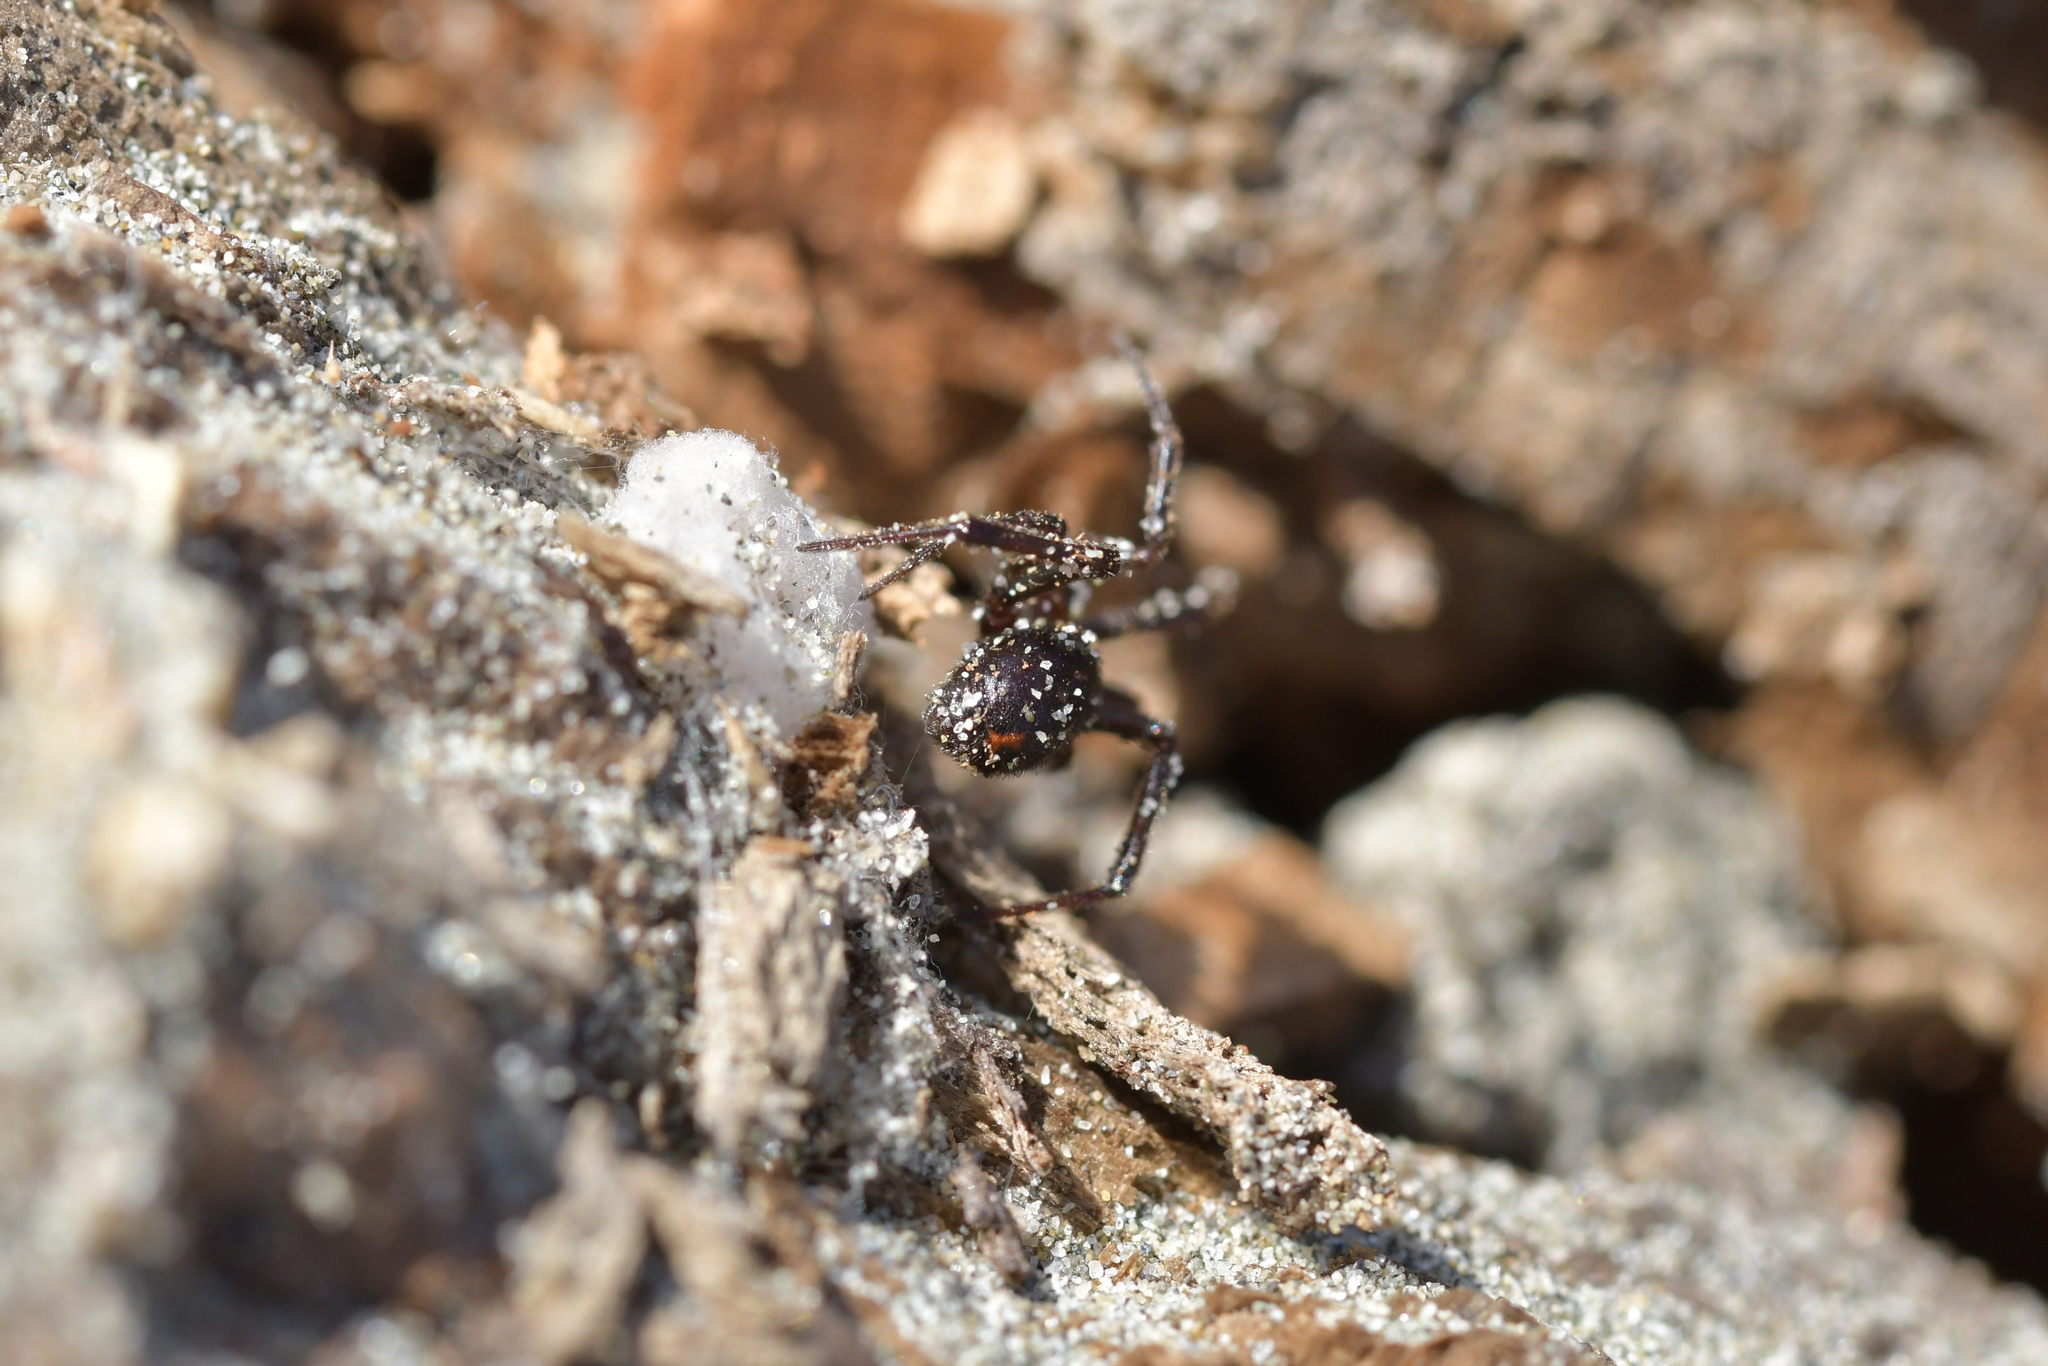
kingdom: Animalia
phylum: Arthropoda
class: Arachnida
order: Araneae
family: Theridiidae
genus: Steatoda
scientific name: Steatoda capensis
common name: Cobweb weaver
